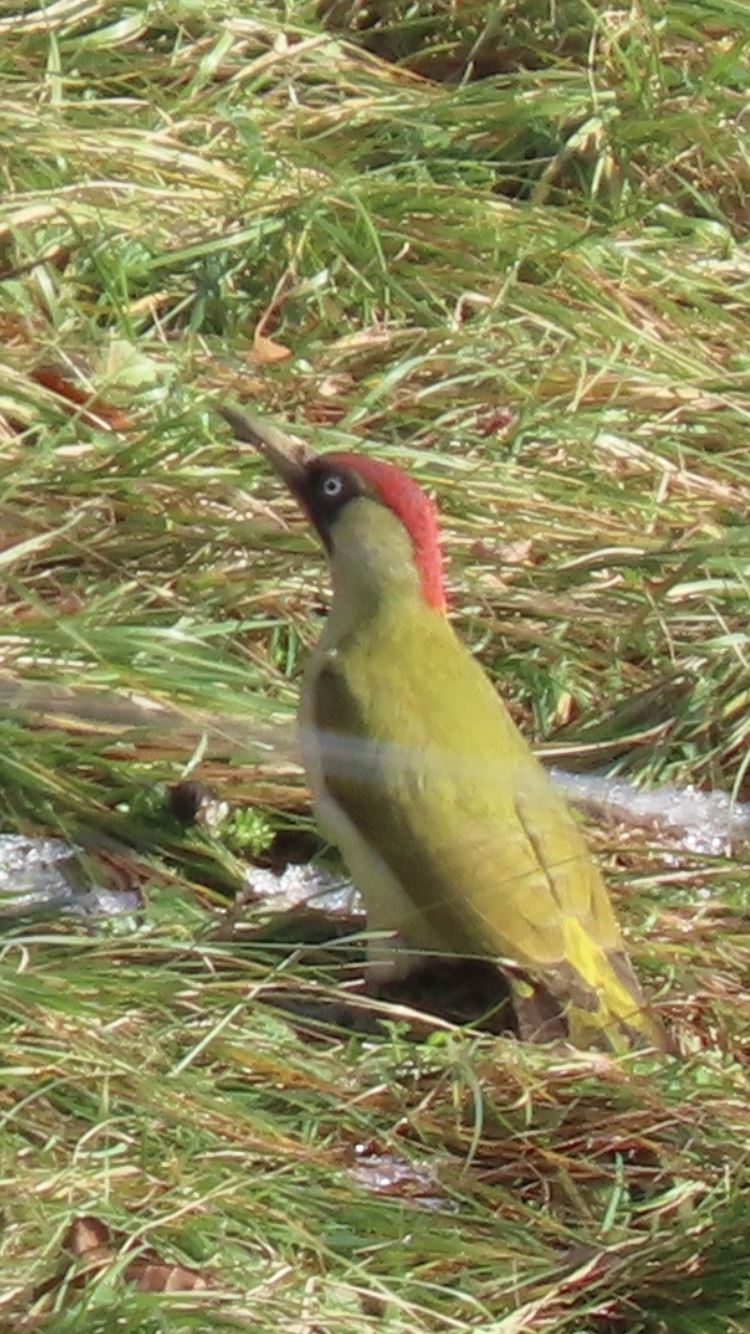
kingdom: Animalia
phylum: Chordata
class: Aves
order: Piciformes
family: Picidae
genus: Picus
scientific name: Picus viridis
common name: European green woodpecker
